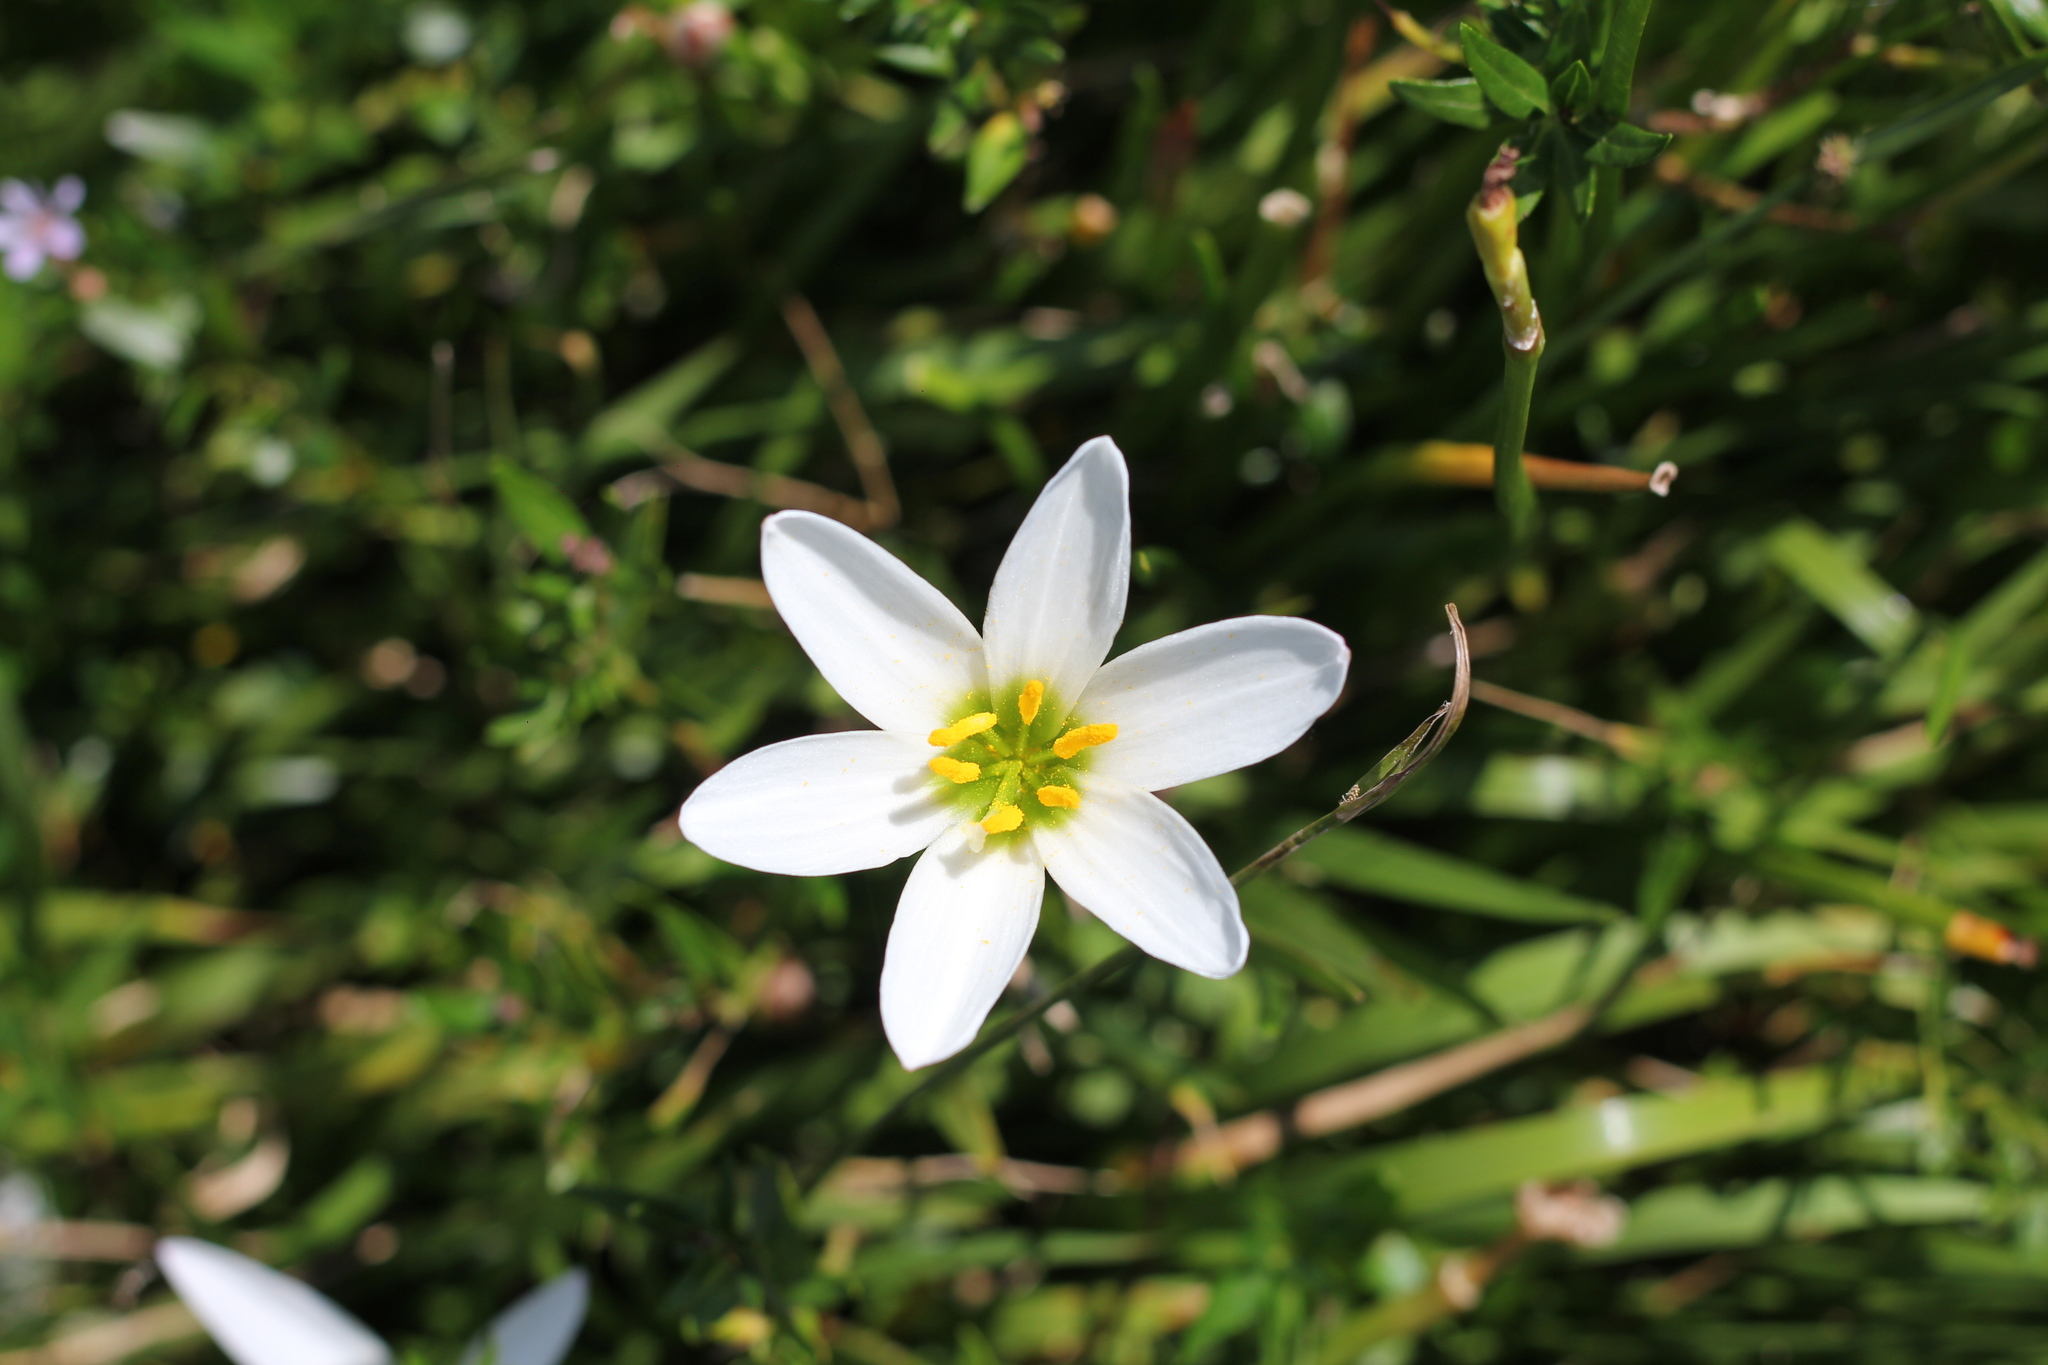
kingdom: Plantae
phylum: Tracheophyta
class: Liliopsida
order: Asparagales
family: Amaryllidaceae
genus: Zephyranthes
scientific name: Zephyranthes candida
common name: Autumn zephyrlily
